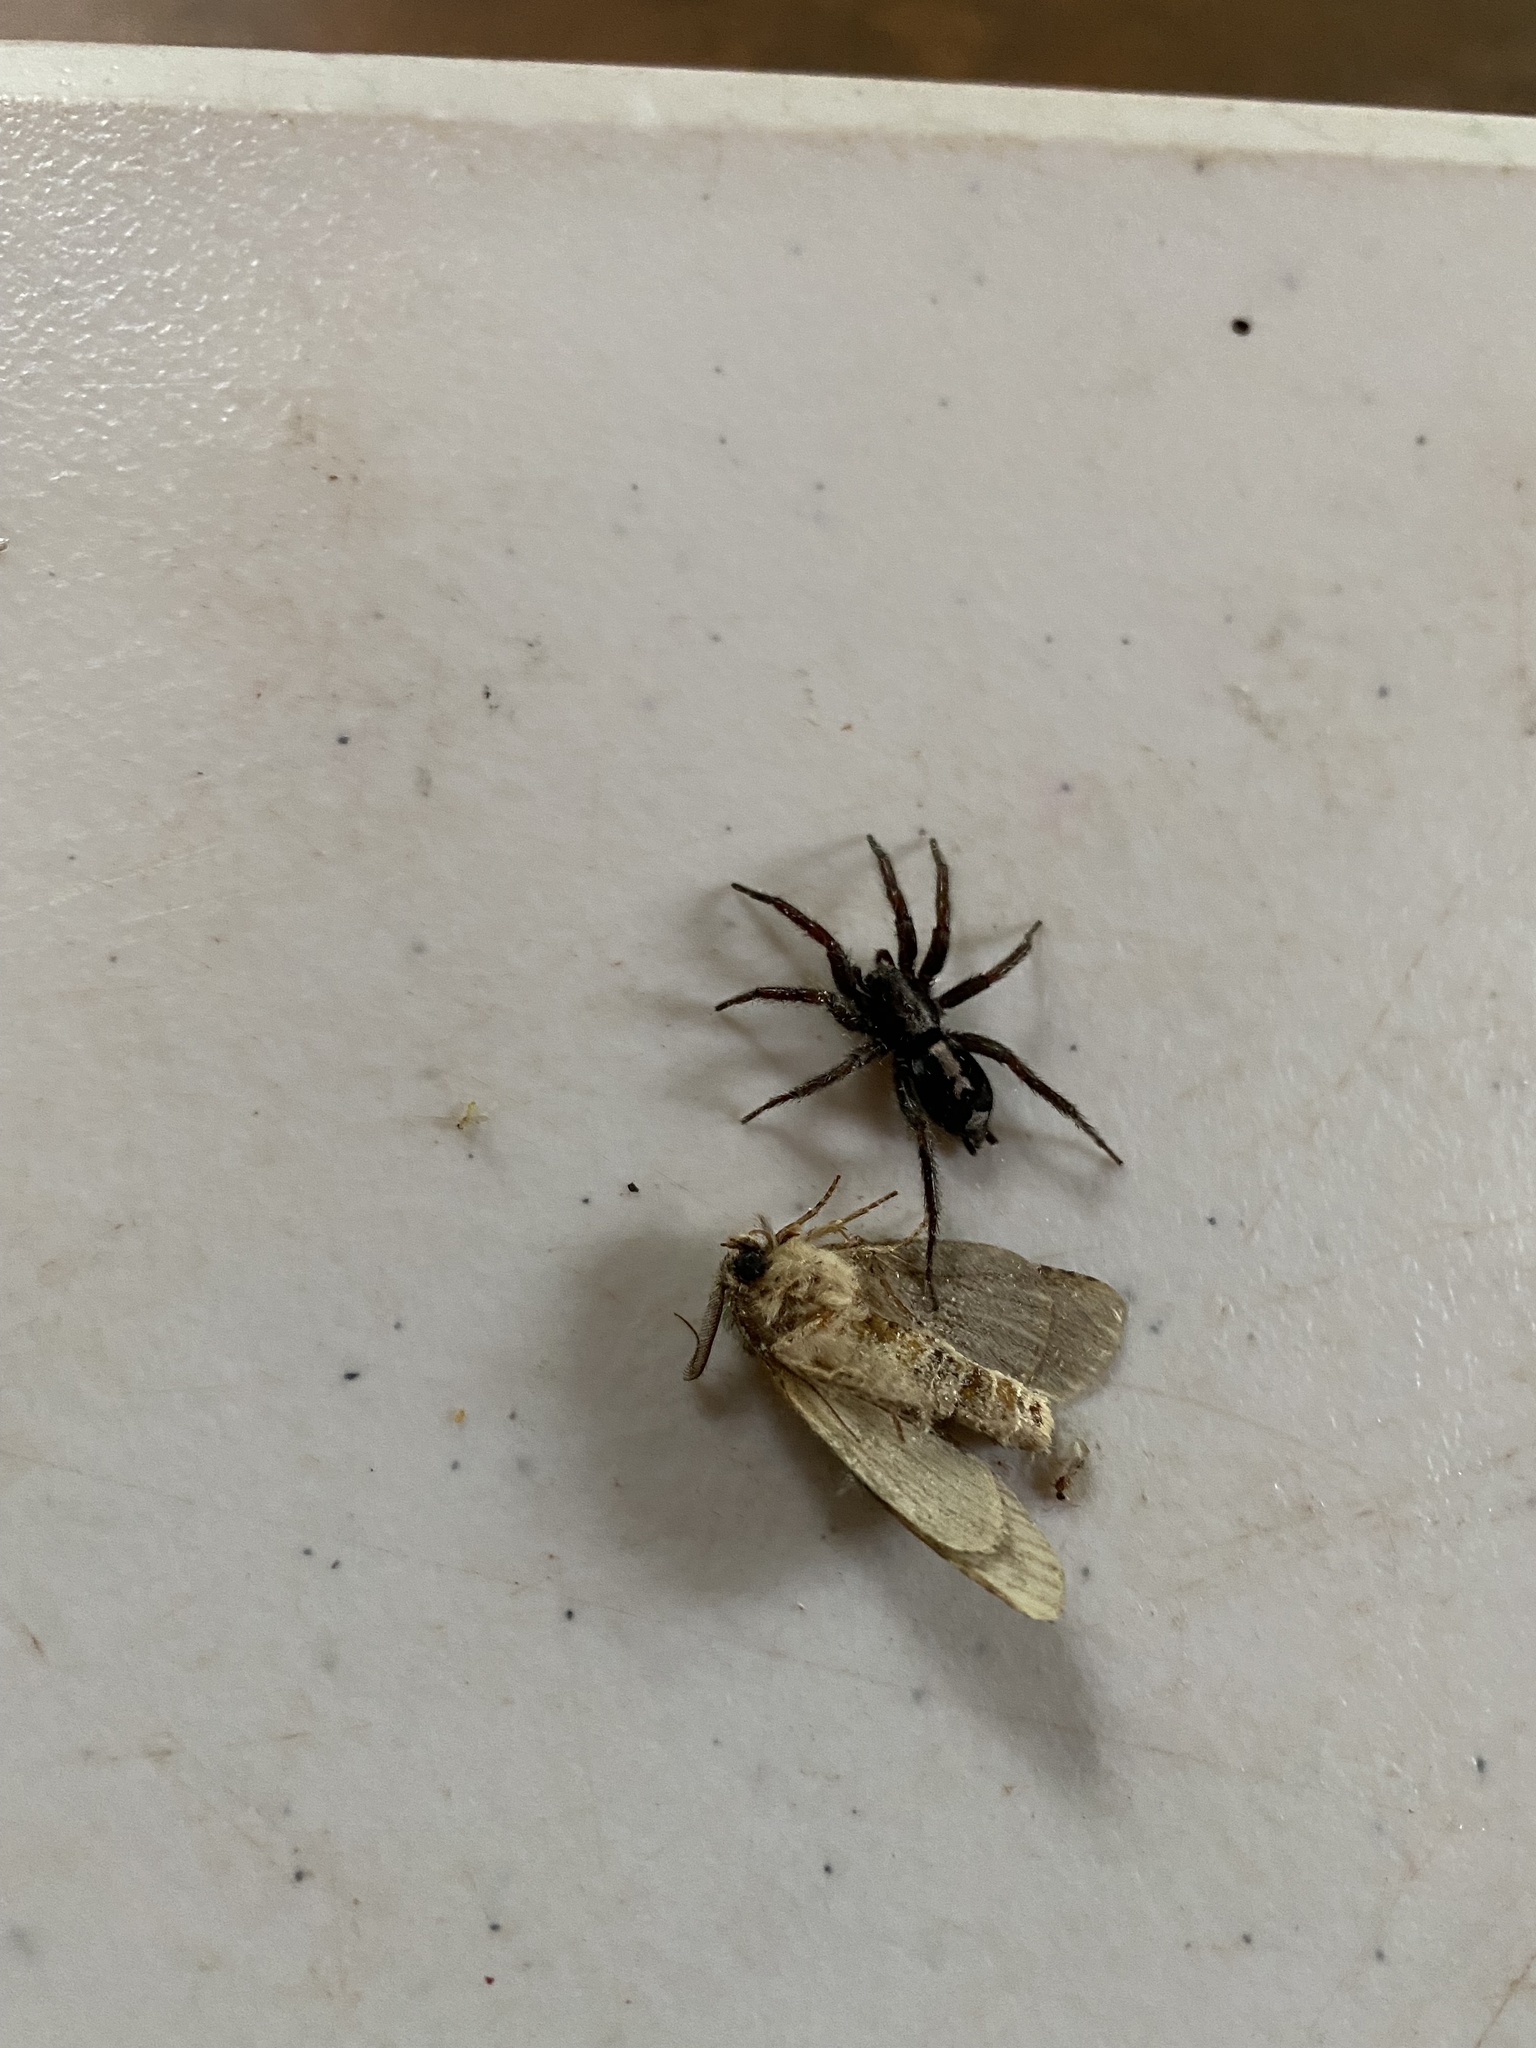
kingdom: Animalia
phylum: Arthropoda
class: Arachnida
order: Araneae
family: Gnaphosidae
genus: Herpyllus
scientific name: Herpyllus ecclesiasticus
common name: Eastern parson spider
